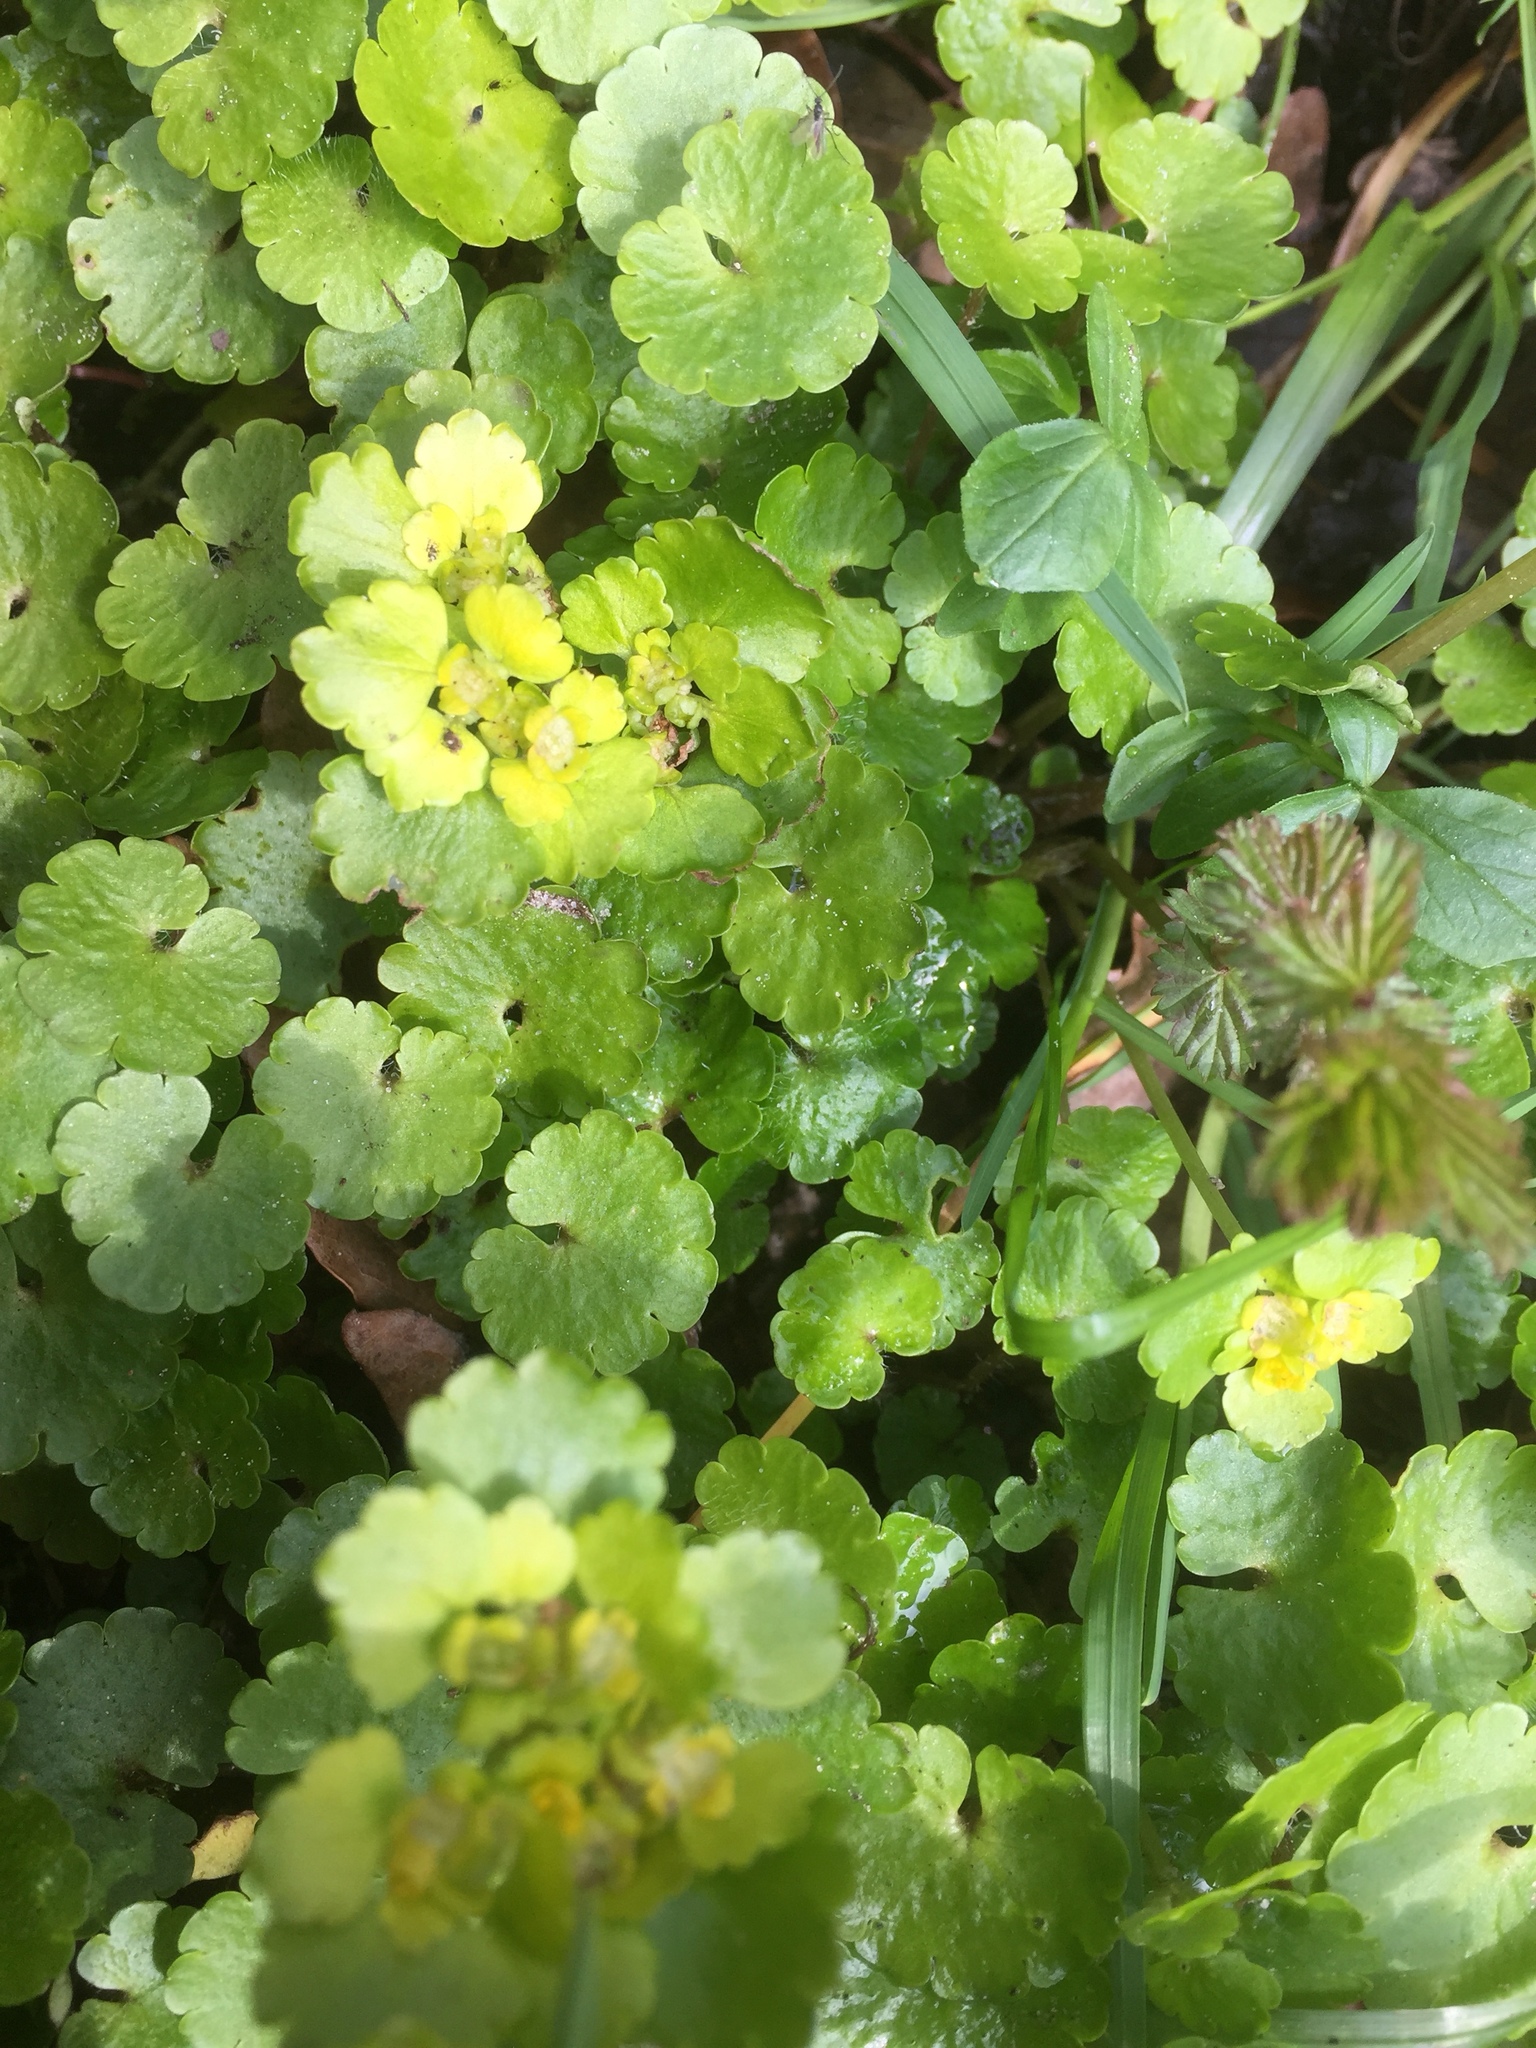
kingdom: Plantae
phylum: Tracheophyta
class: Magnoliopsida
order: Saxifragales
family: Saxifragaceae
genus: Chrysosplenium
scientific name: Chrysosplenium alternifolium
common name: Alternate-leaved golden-saxifrage
